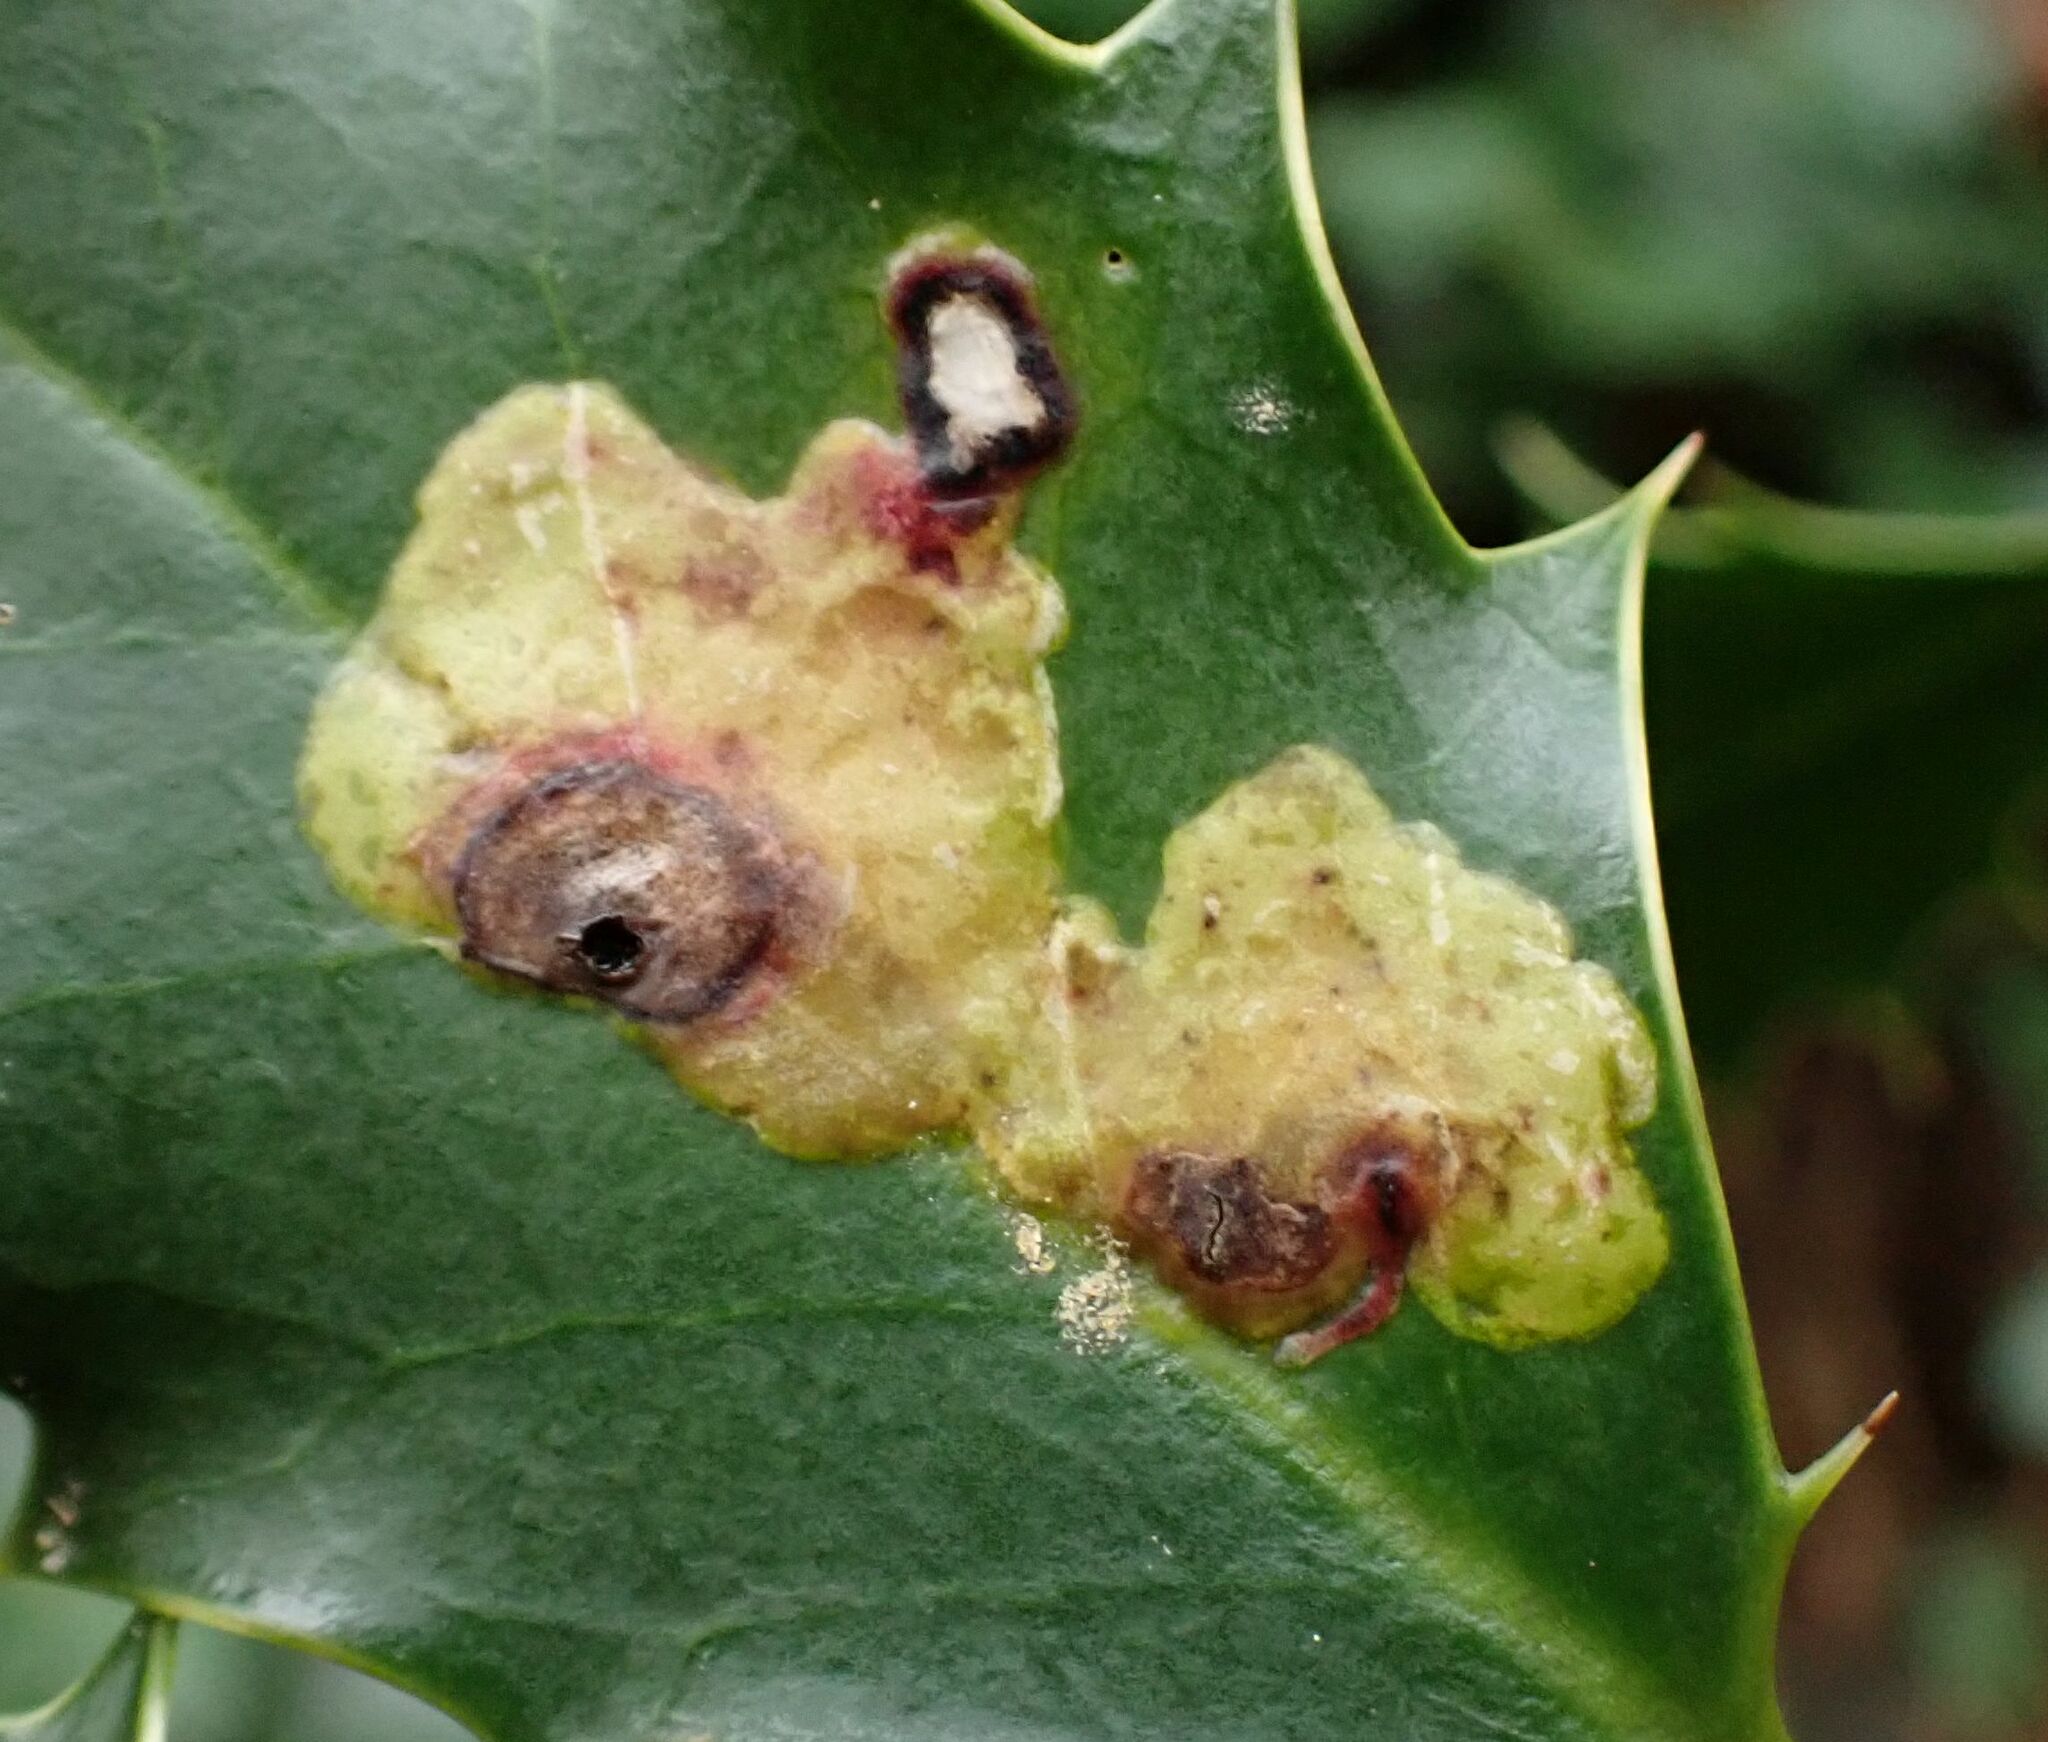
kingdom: Animalia
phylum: Arthropoda
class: Insecta
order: Diptera
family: Agromyzidae
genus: Phytomyza
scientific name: Phytomyza ilicis
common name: Holly leafminer
